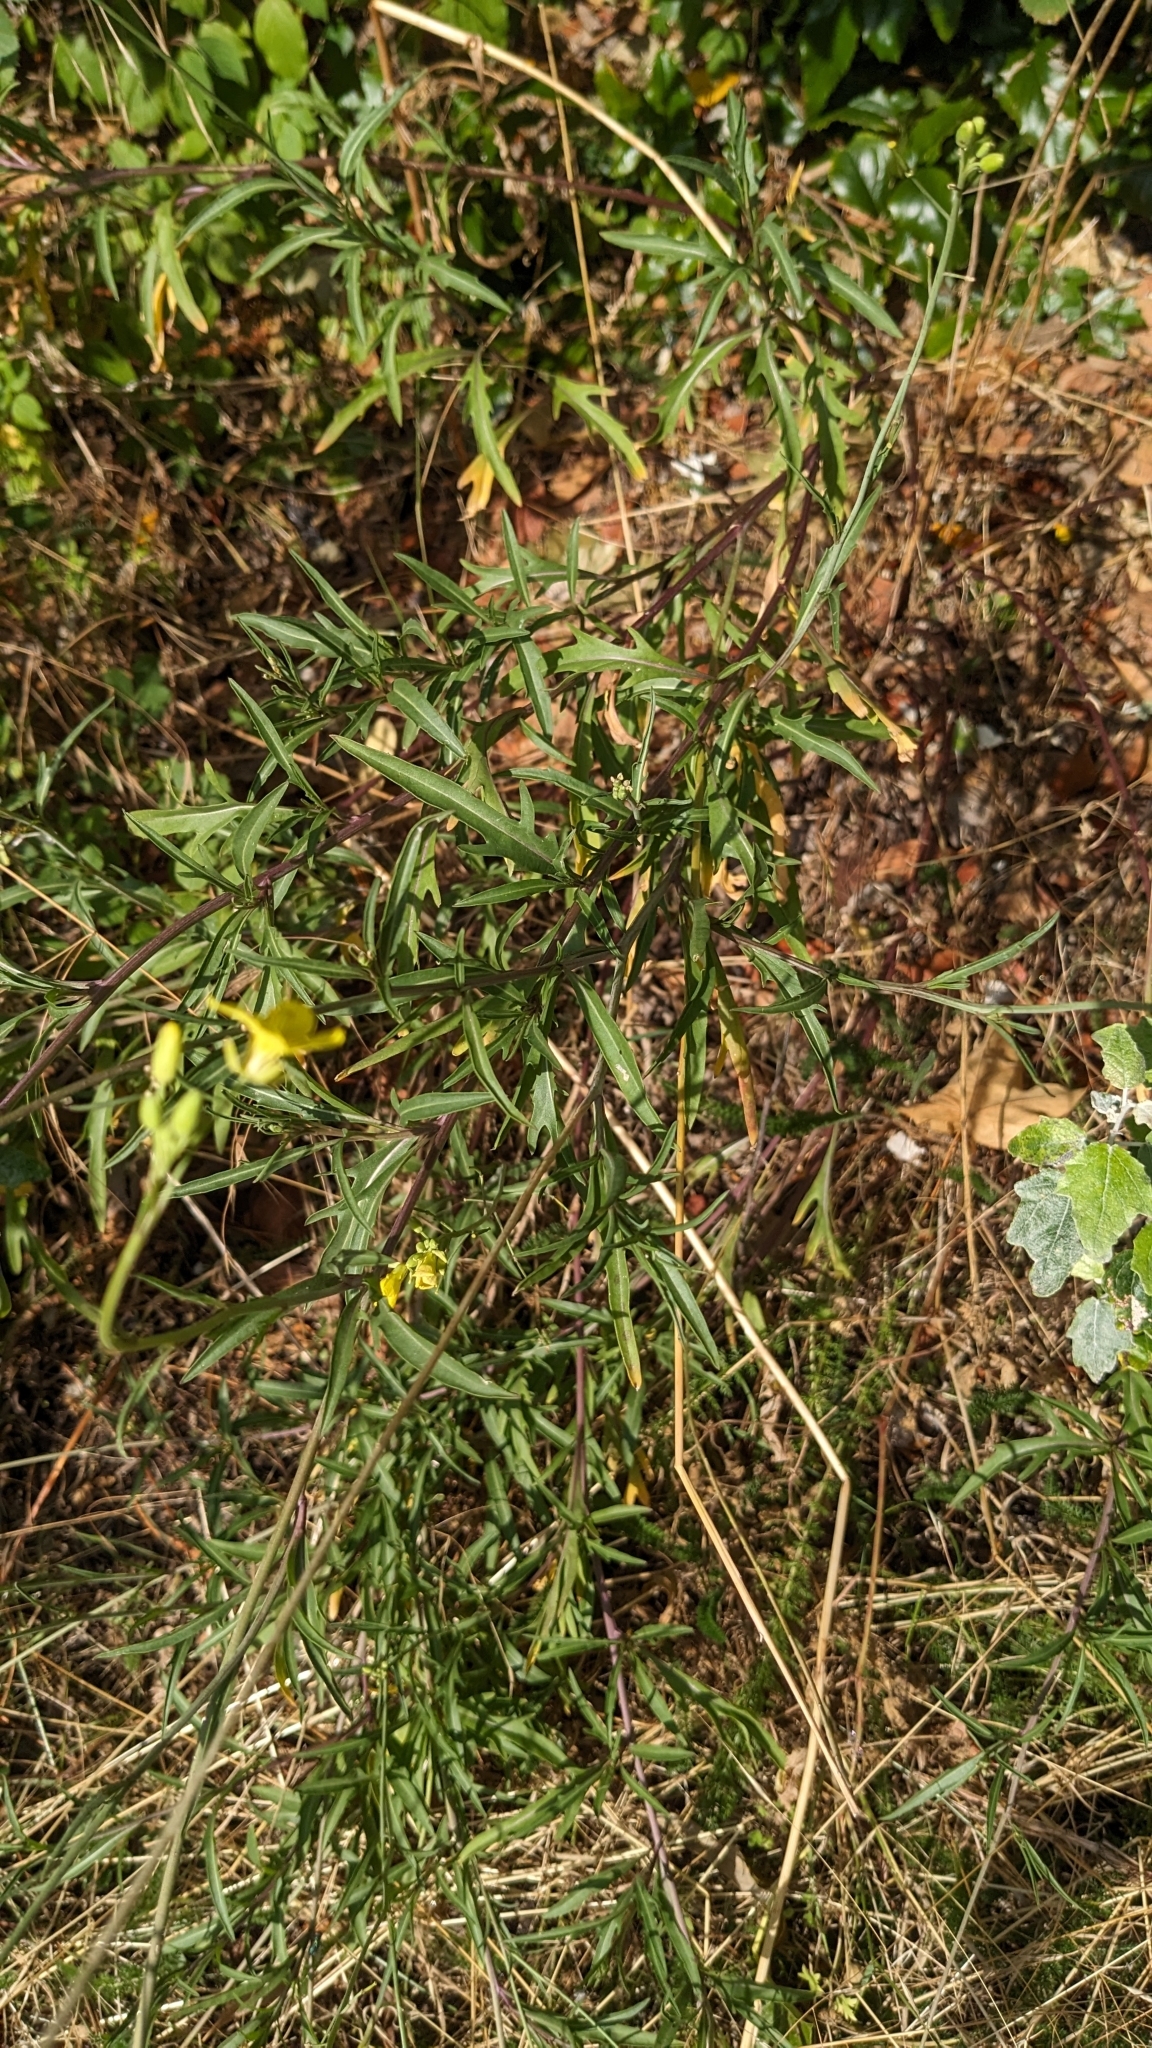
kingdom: Plantae
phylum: Tracheophyta
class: Magnoliopsida
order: Brassicales
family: Brassicaceae
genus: Diplotaxis
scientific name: Diplotaxis tenuifolia
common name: Perennial wall-rocket
